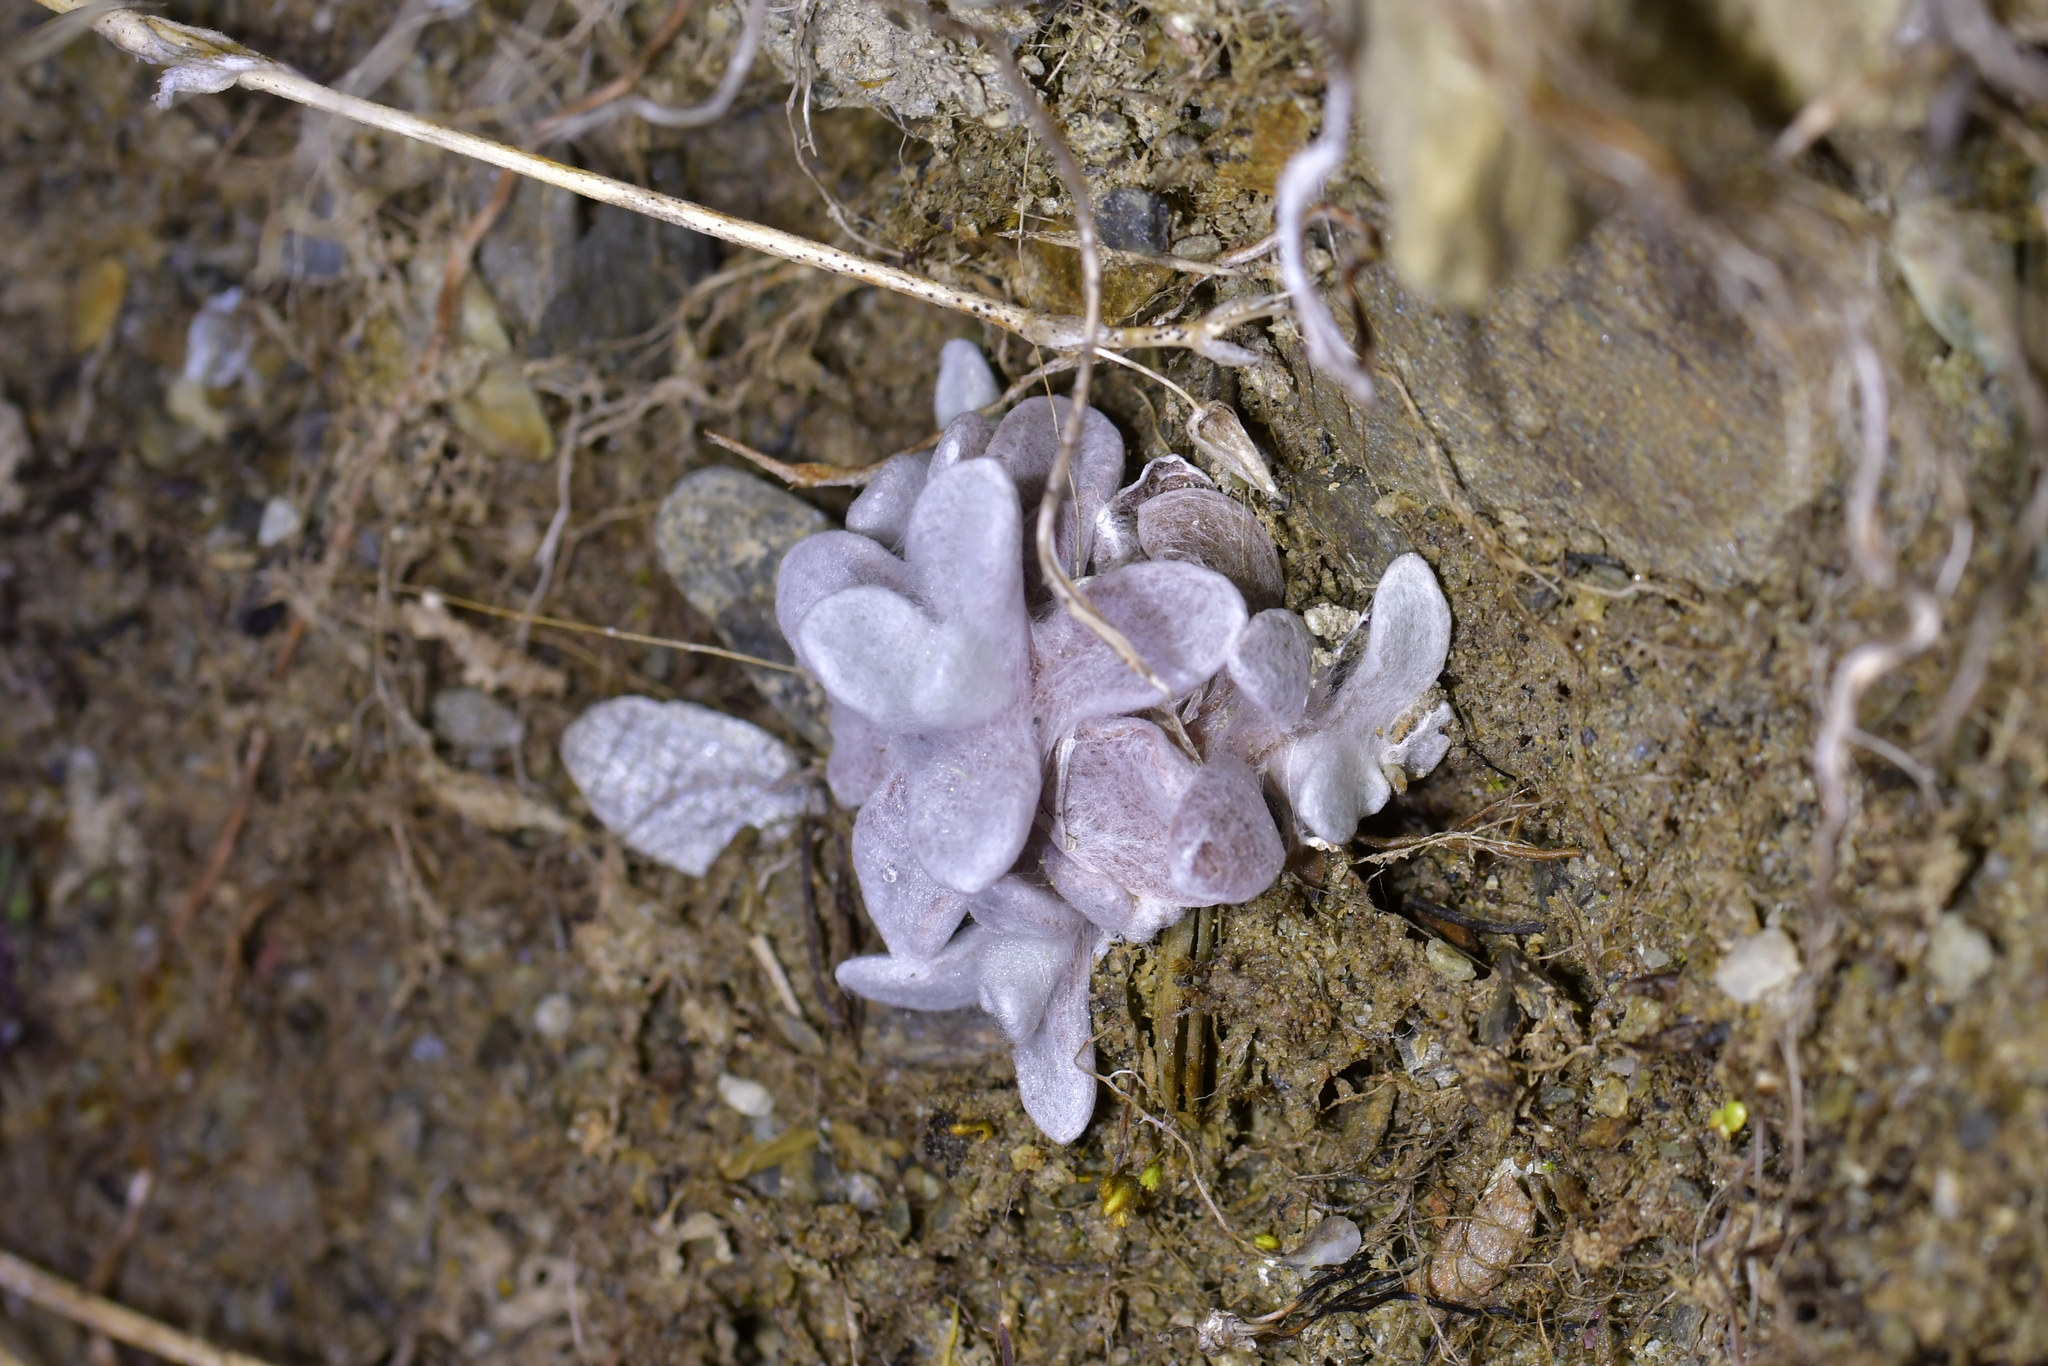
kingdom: Plantae
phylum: Tracheophyta
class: Magnoliopsida
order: Asterales
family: Asteraceae
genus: Helichrysum
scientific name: Helichrysum luteoalbum
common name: Daisy
